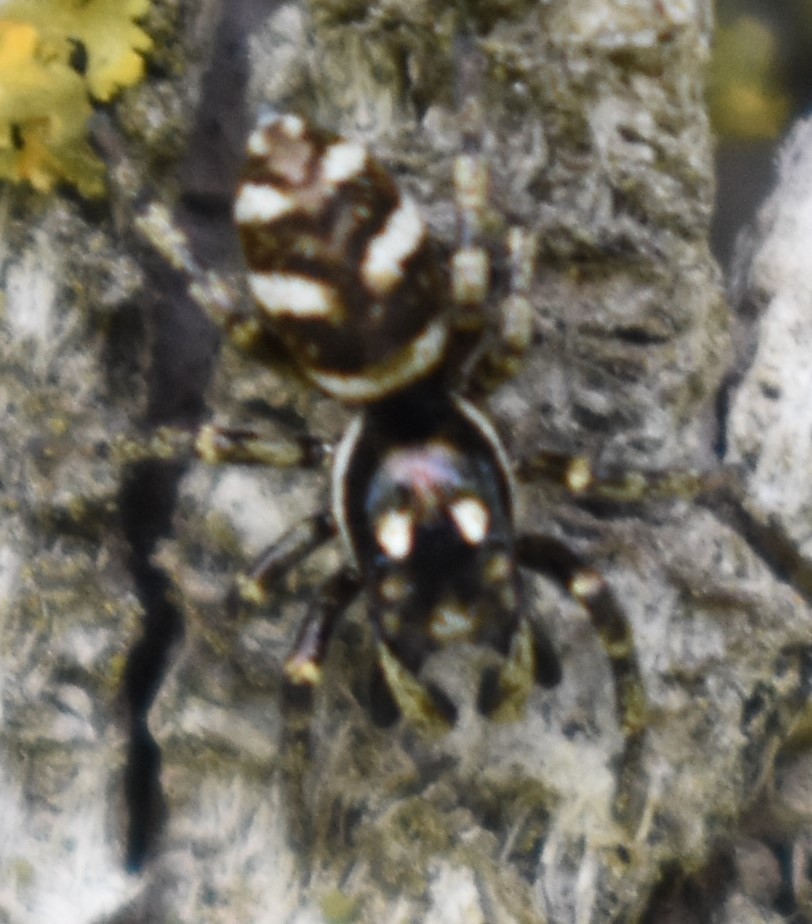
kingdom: Animalia
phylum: Arthropoda
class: Arachnida
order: Araneae
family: Salticidae
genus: Salticus
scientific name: Salticus scenicus
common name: Zebra jumper
